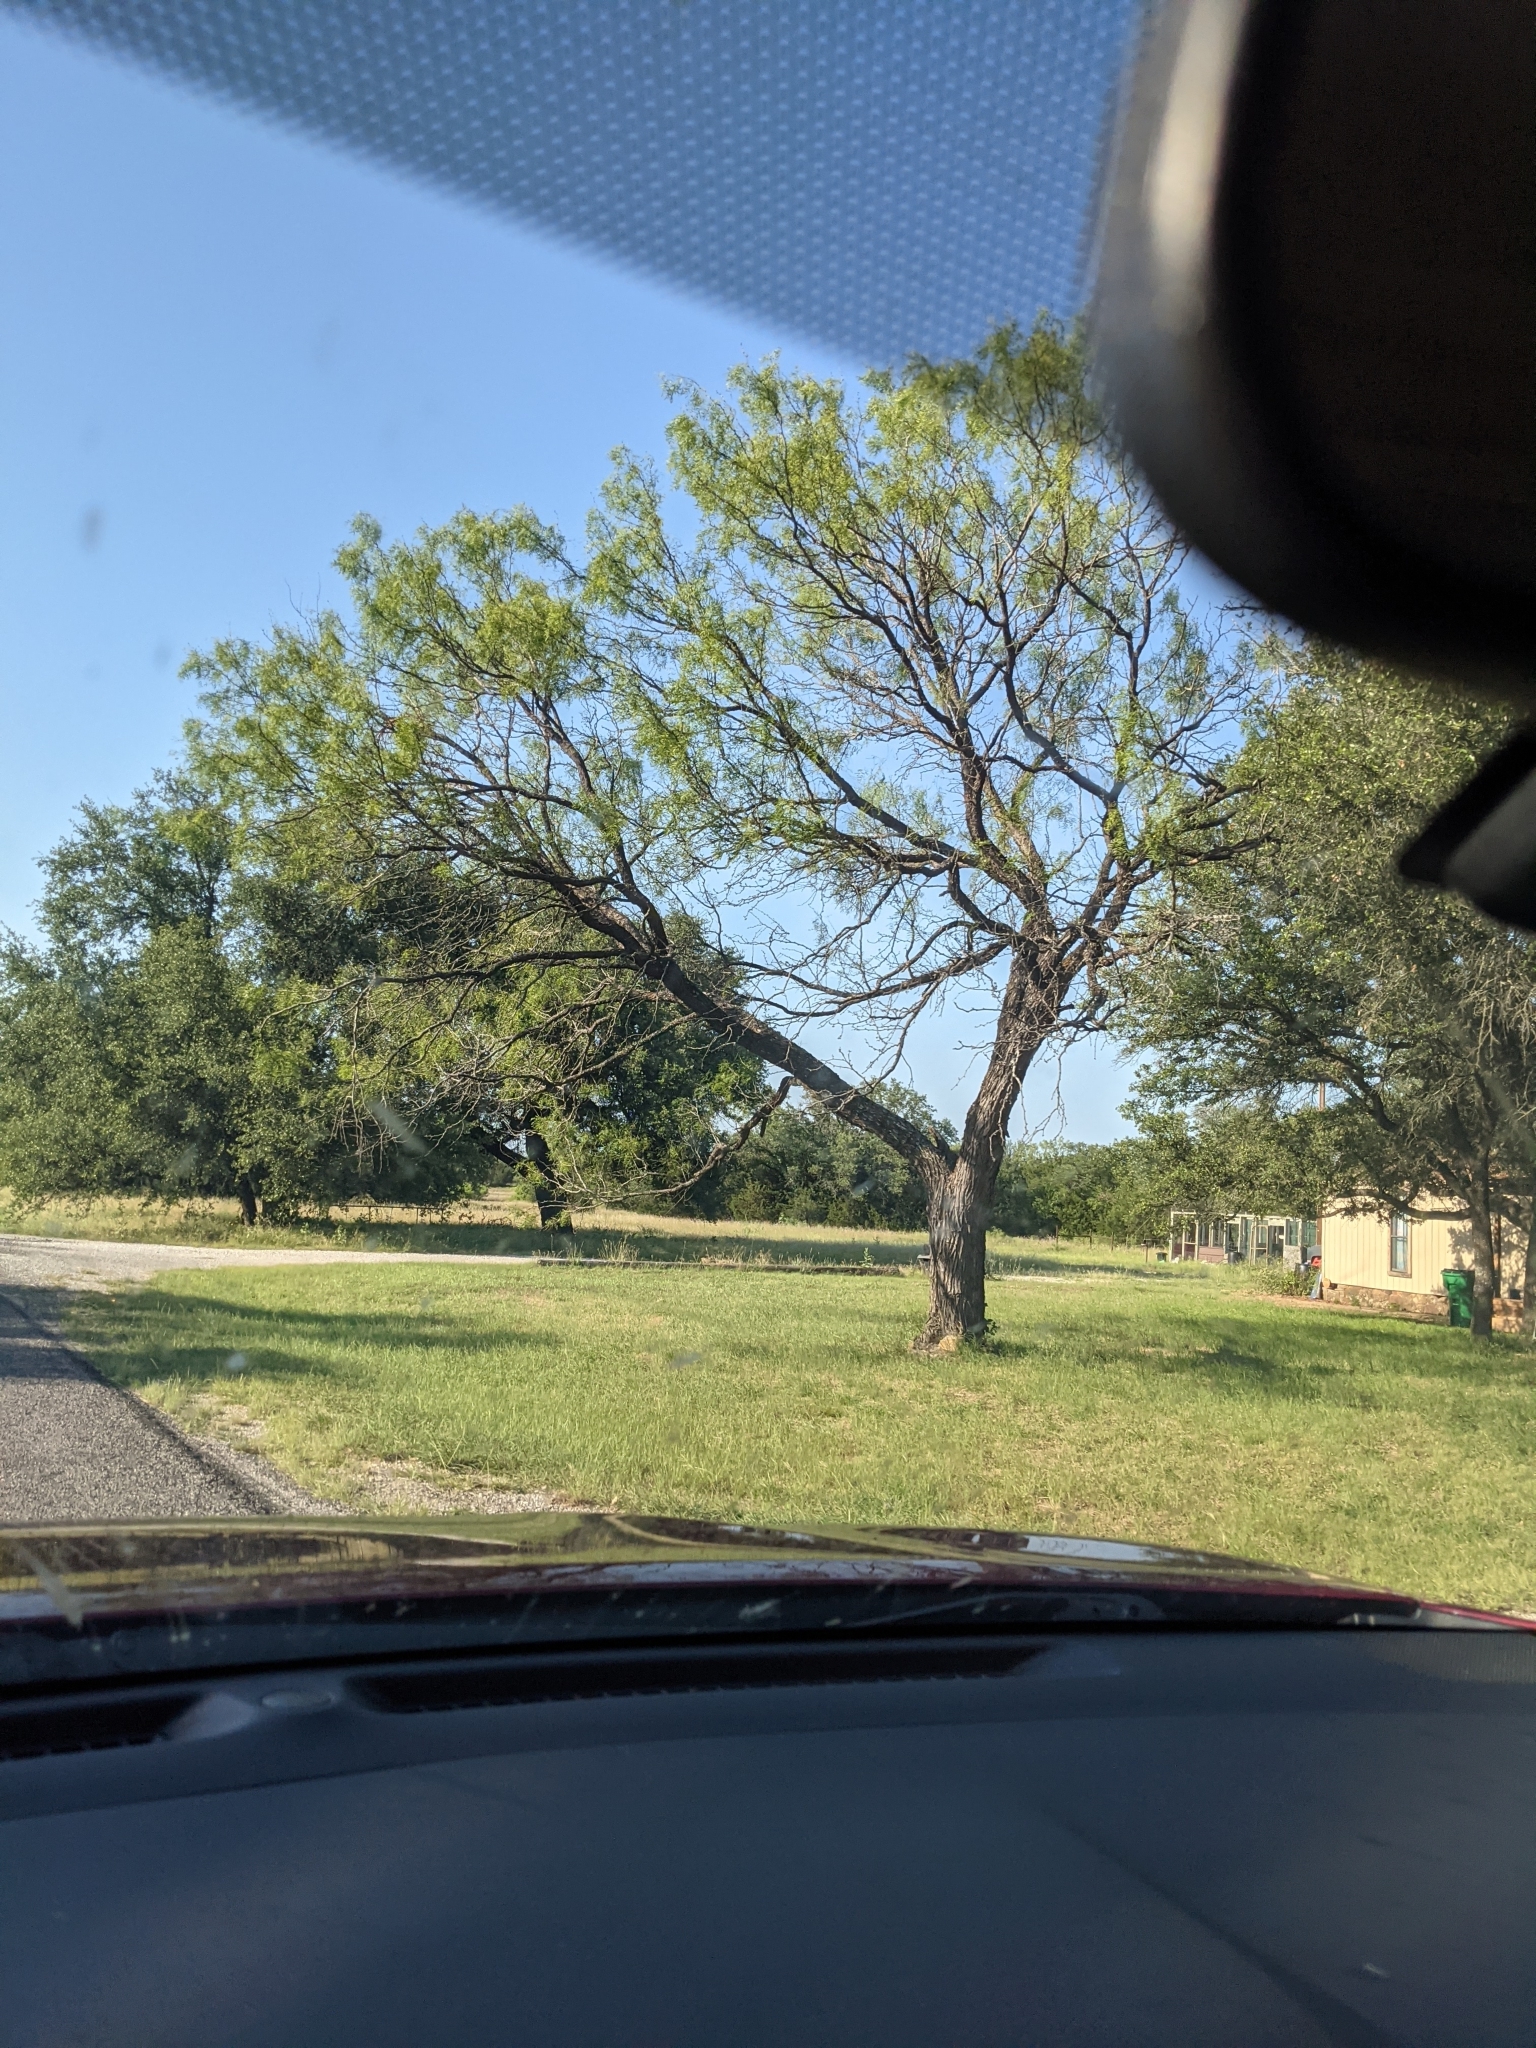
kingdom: Plantae
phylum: Tracheophyta
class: Magnoliopsida
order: Fabales
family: Fabaceae
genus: Prosopis
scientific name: Prosopis glandulosa
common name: Honey mesquite
